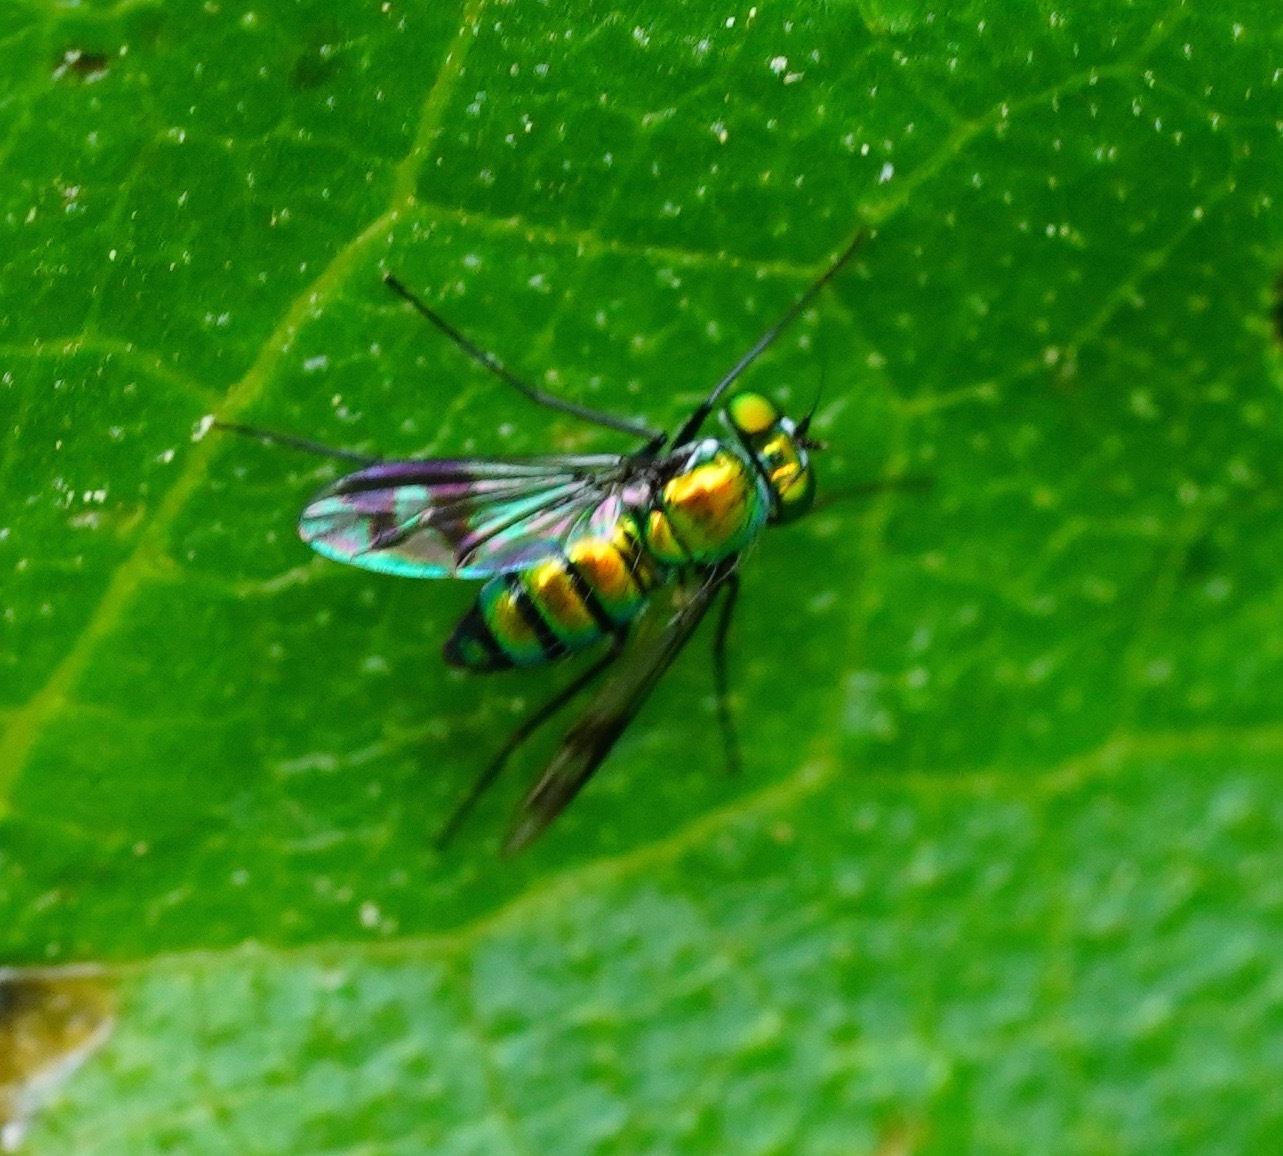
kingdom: Animalia
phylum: Arthropoda
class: Insecta
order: Diptera
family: Dolichopodidae
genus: Condylostylus
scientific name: Condylostylus occidentalis
